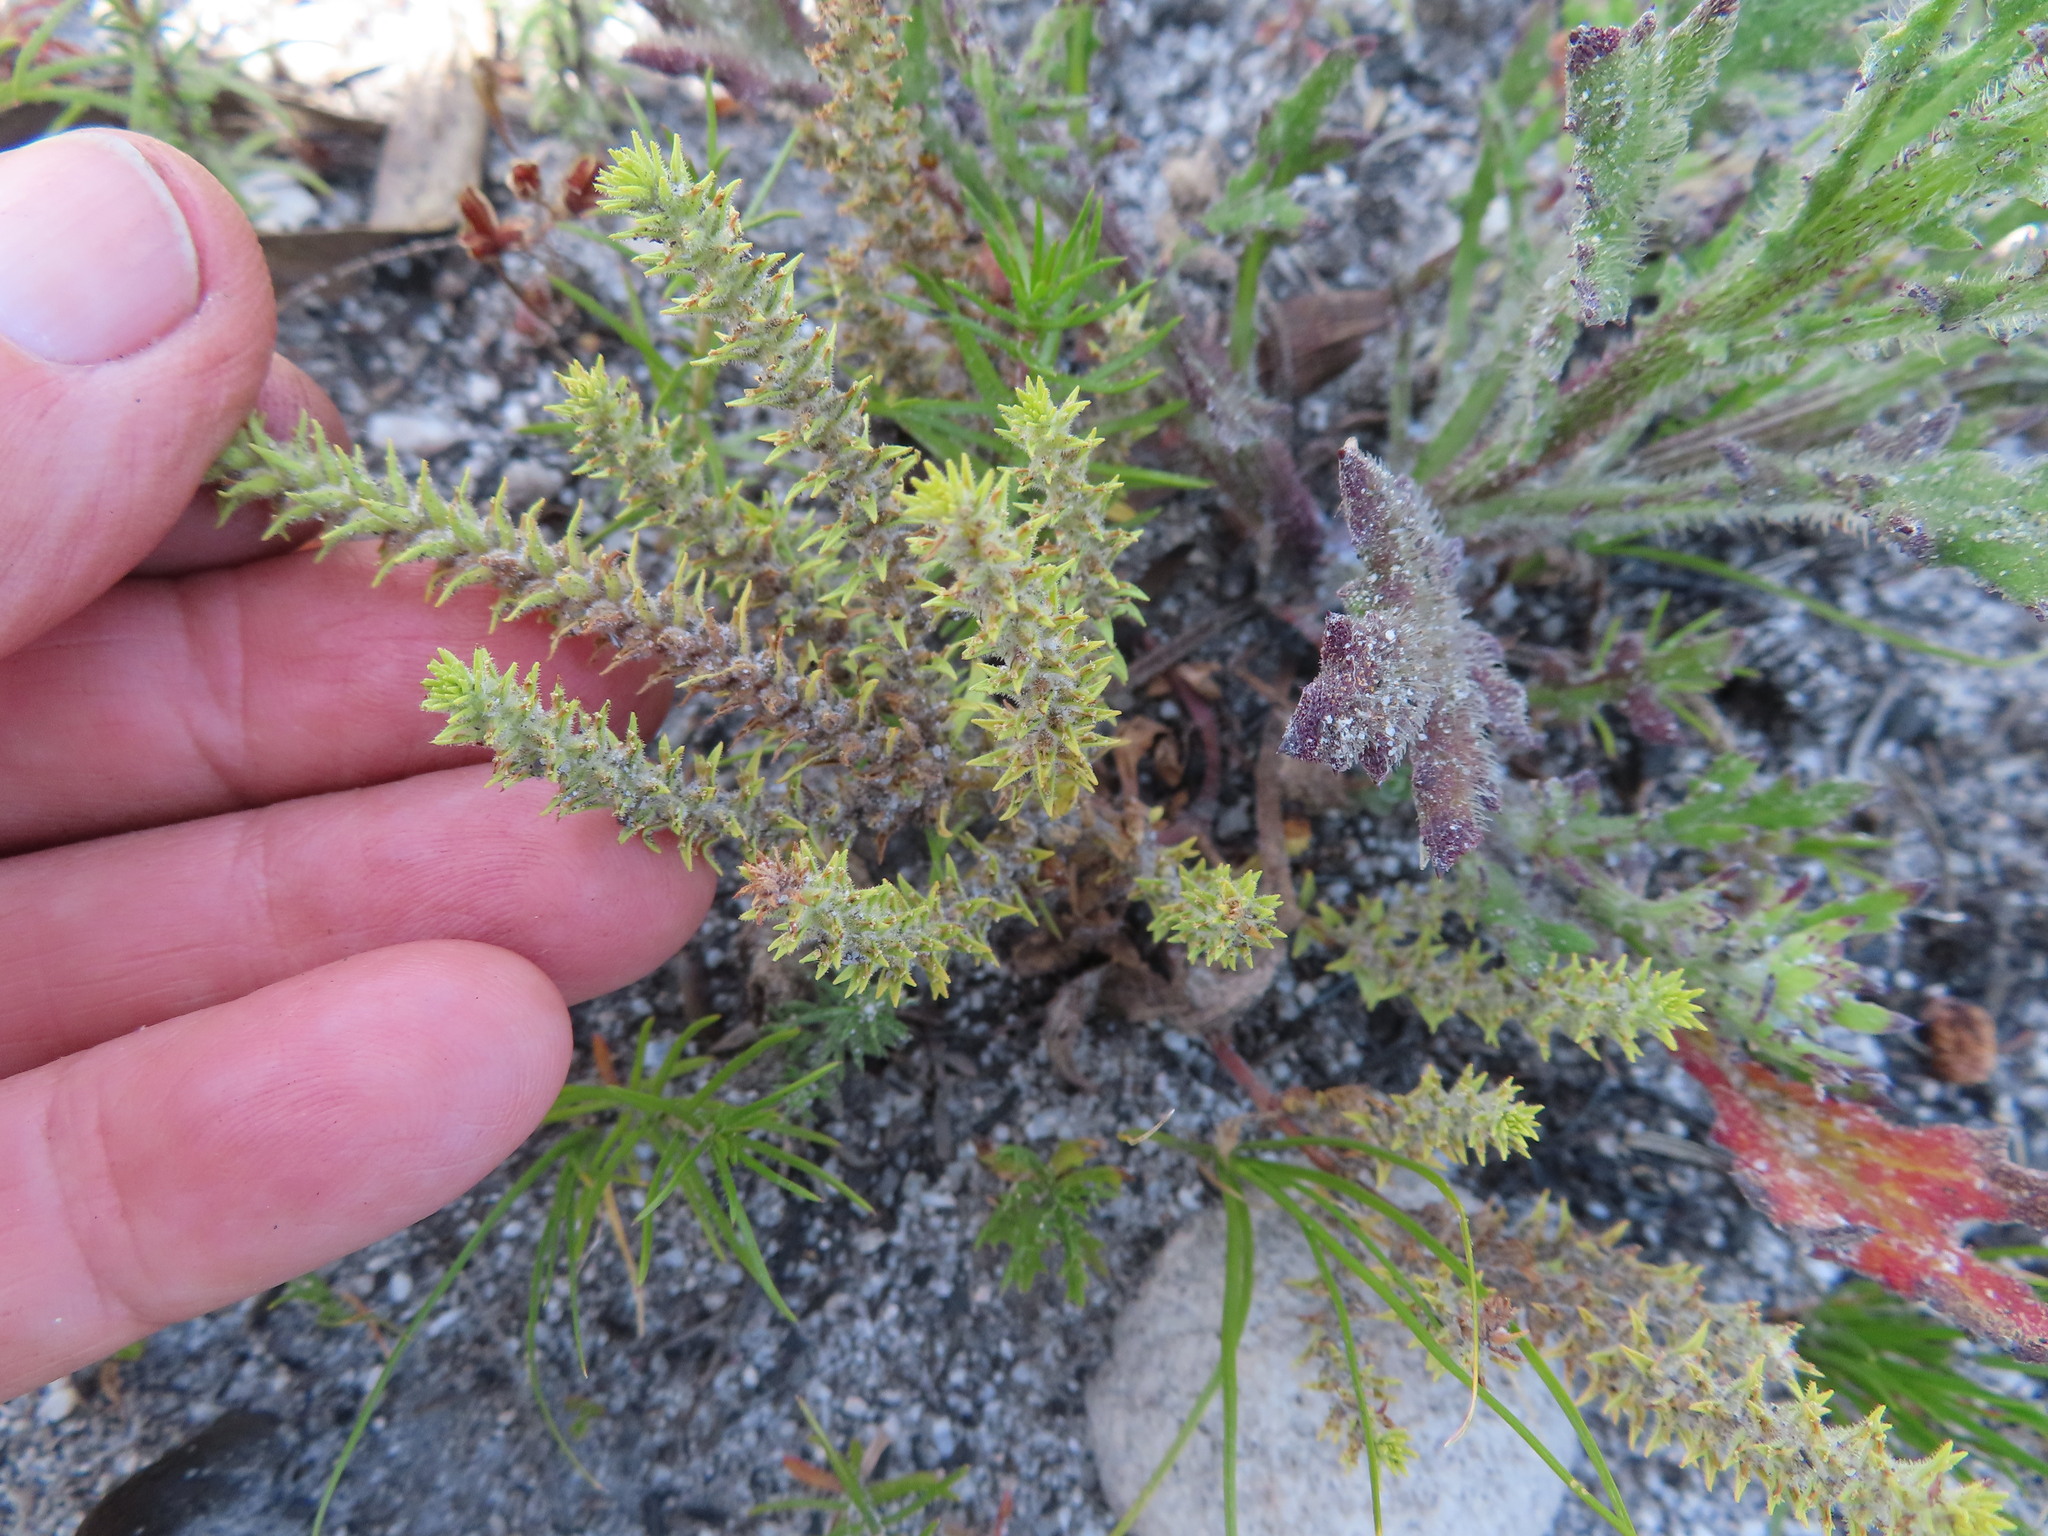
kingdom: Plantae
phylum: Tracheophyta
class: Magnoliopsida
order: Lamiales
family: Scrophulariaceae
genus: Chenopodiopsis
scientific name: Chenopodiopsis hirta
